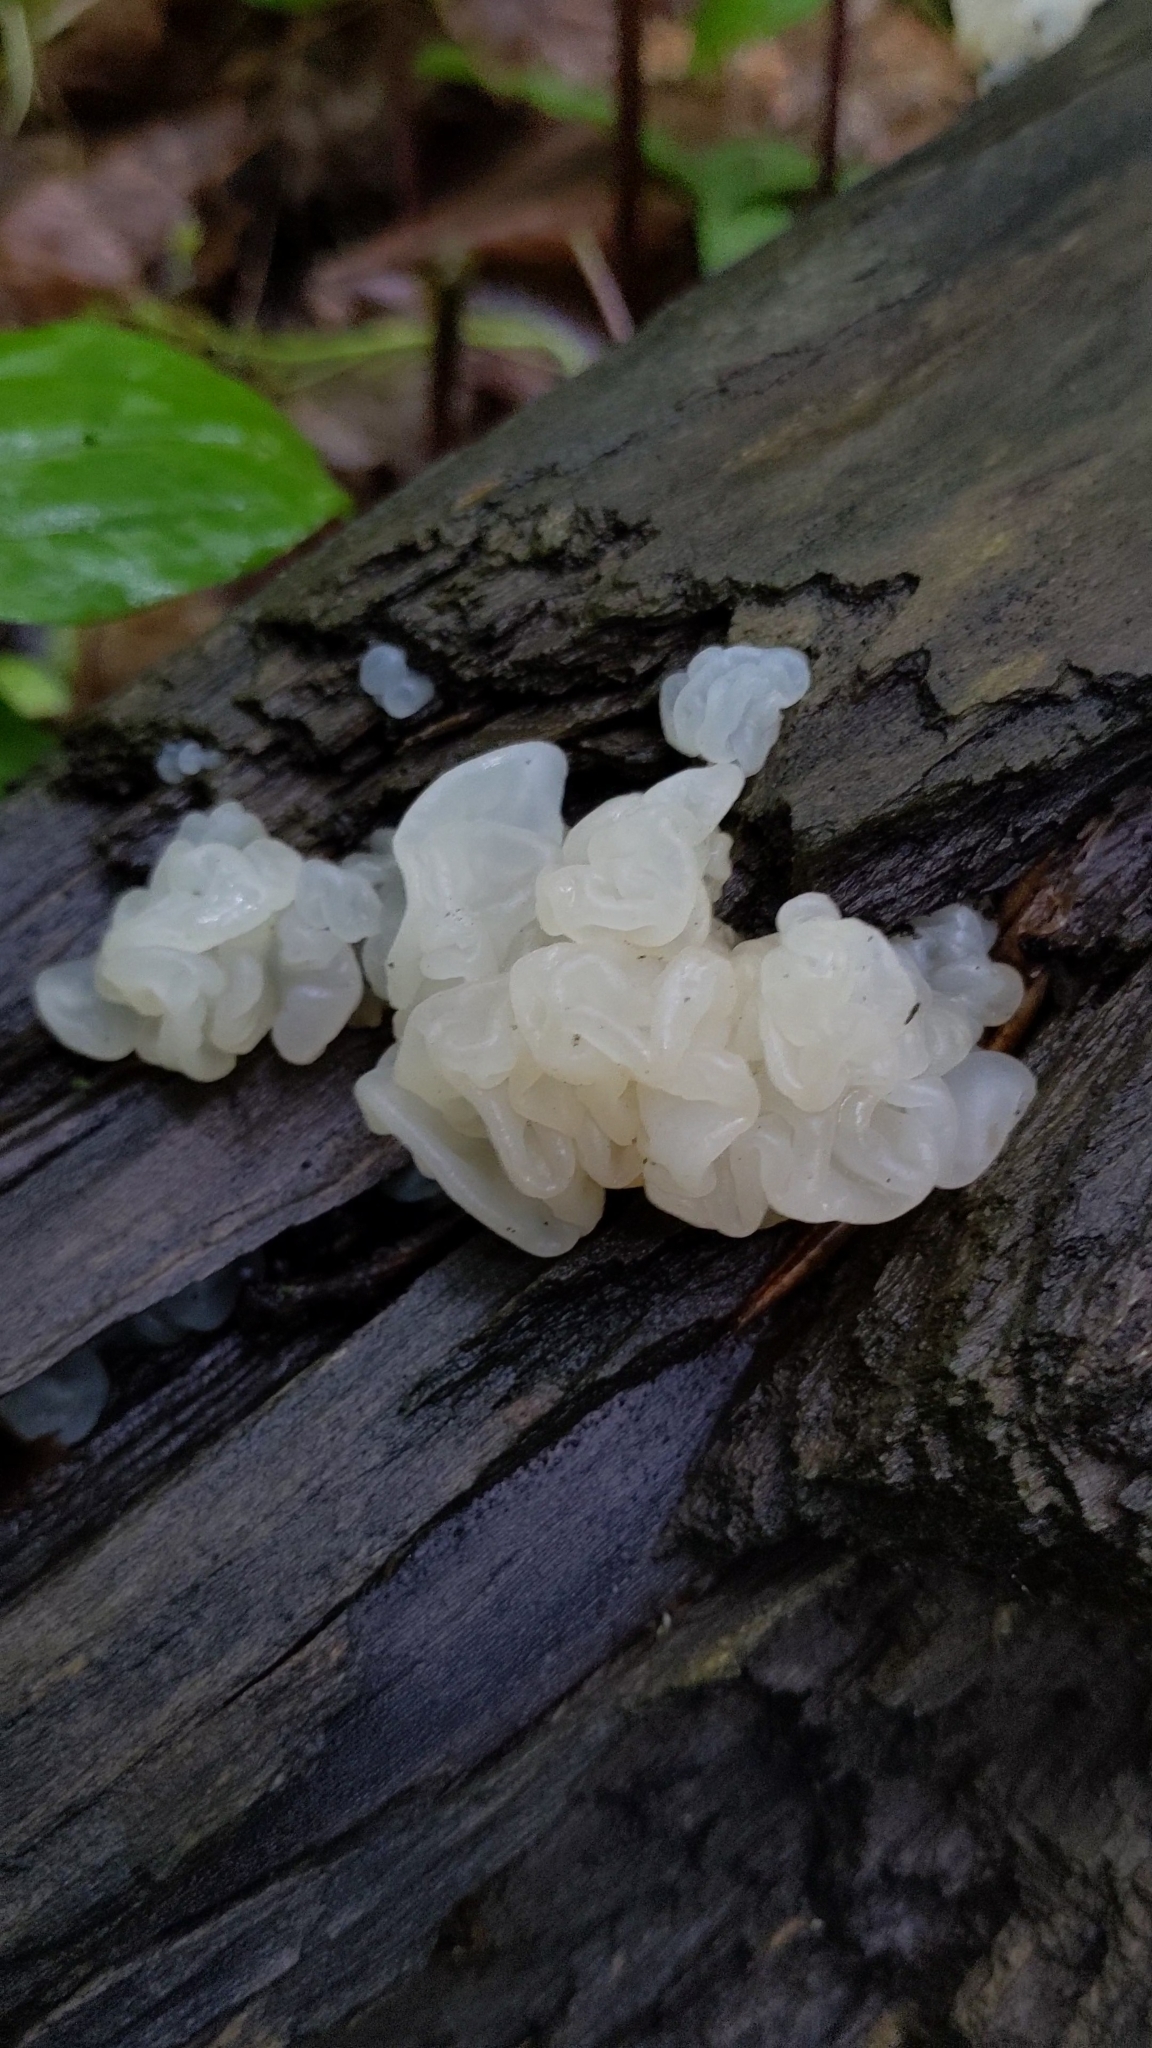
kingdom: Fungi
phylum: Basidiomycota
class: Agaricomycetes
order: Auriculariales
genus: Ductifera
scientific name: Ductifera pululahuana
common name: White jelly fungus
